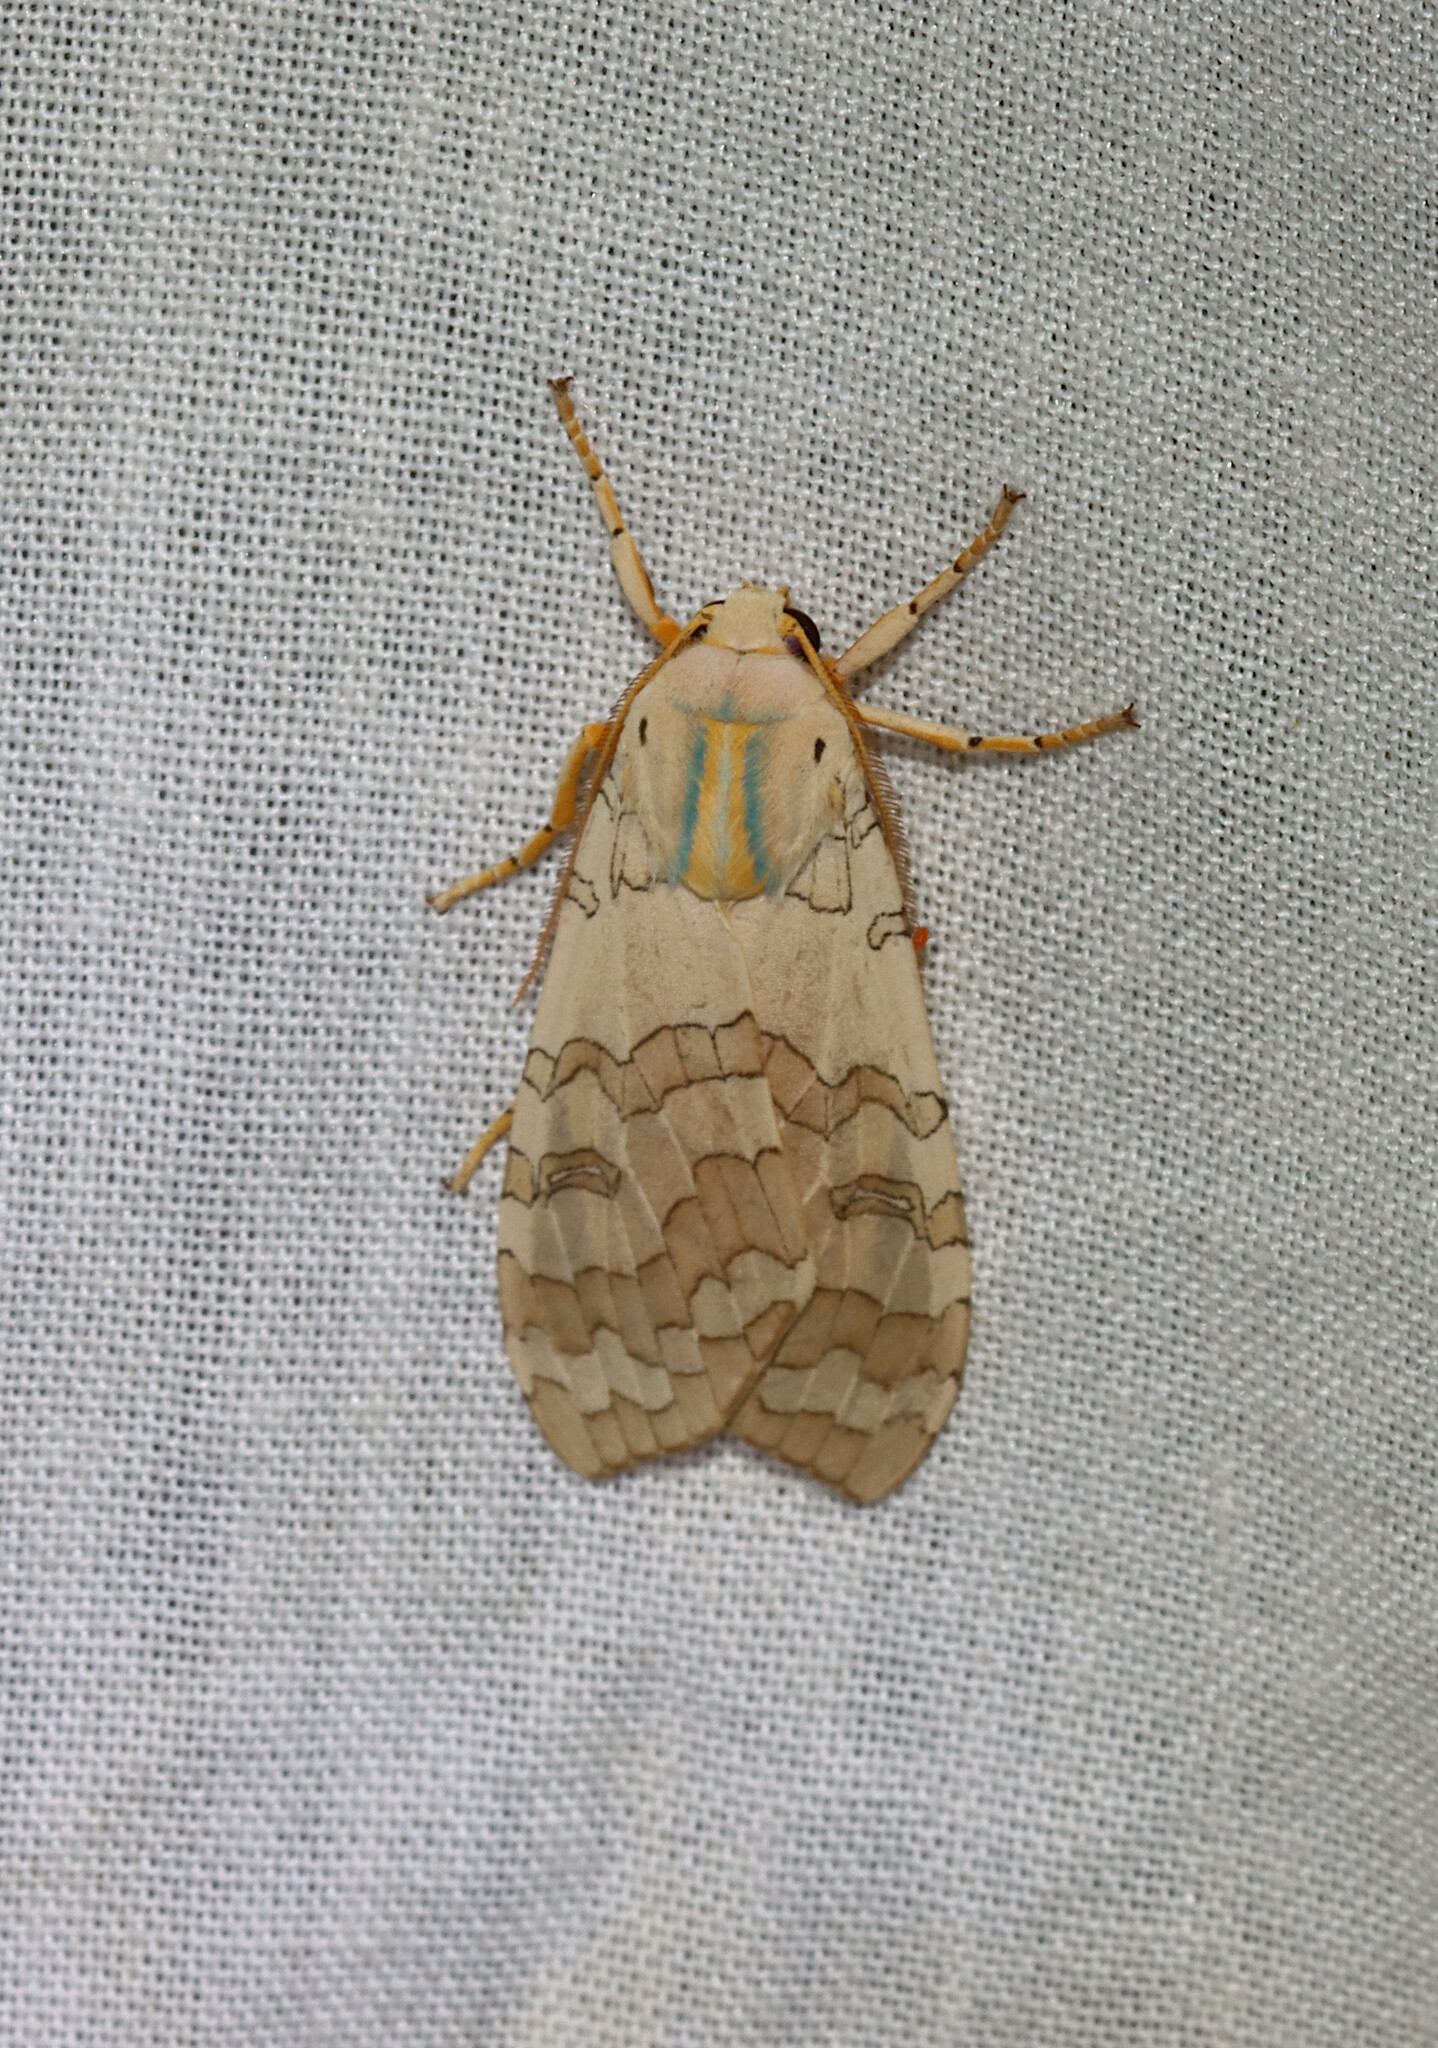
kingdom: Animalia
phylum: Arthropoda
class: Insecta
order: Lepidoptera
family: Erebidae
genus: Halysidota
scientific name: Halysidota
